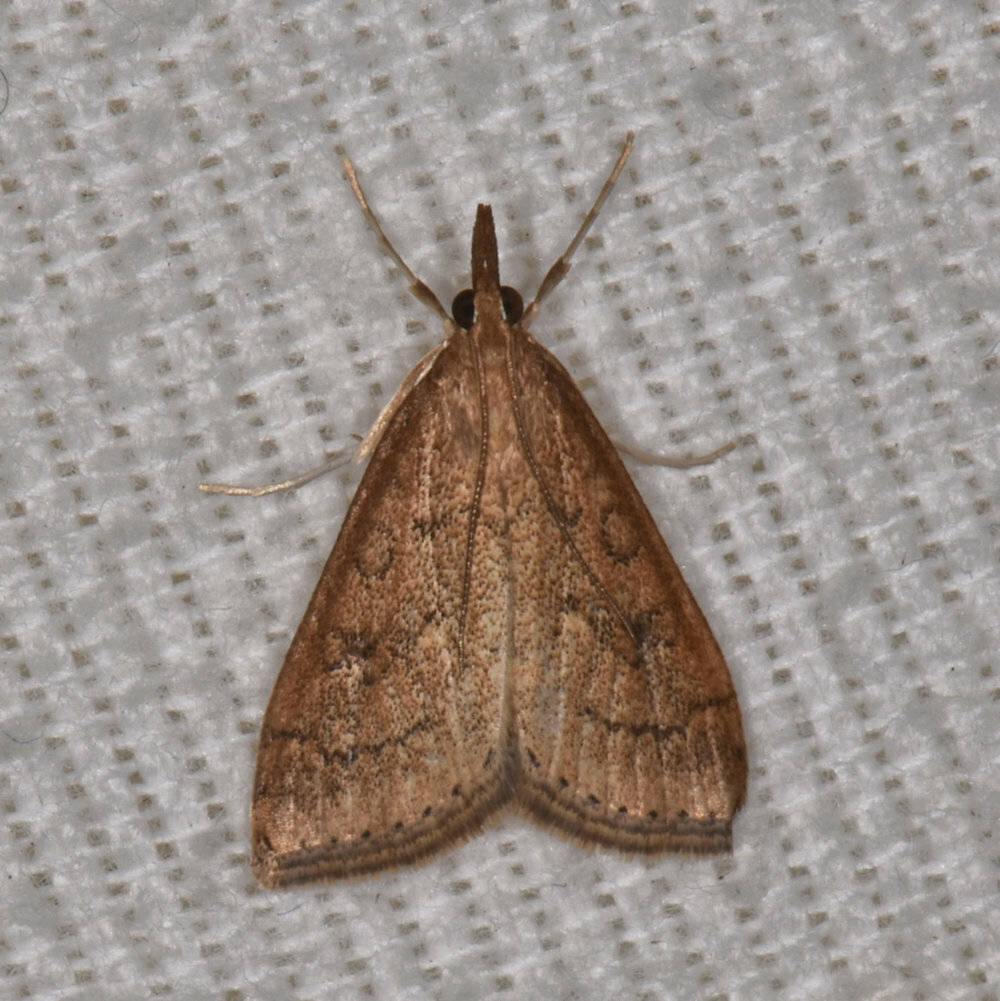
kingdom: Animalia
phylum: Arthropoda
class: Insecta
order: Lepidoptera
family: Crambidae
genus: Udea
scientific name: Udea rubigalis
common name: Celery leaftier moth
